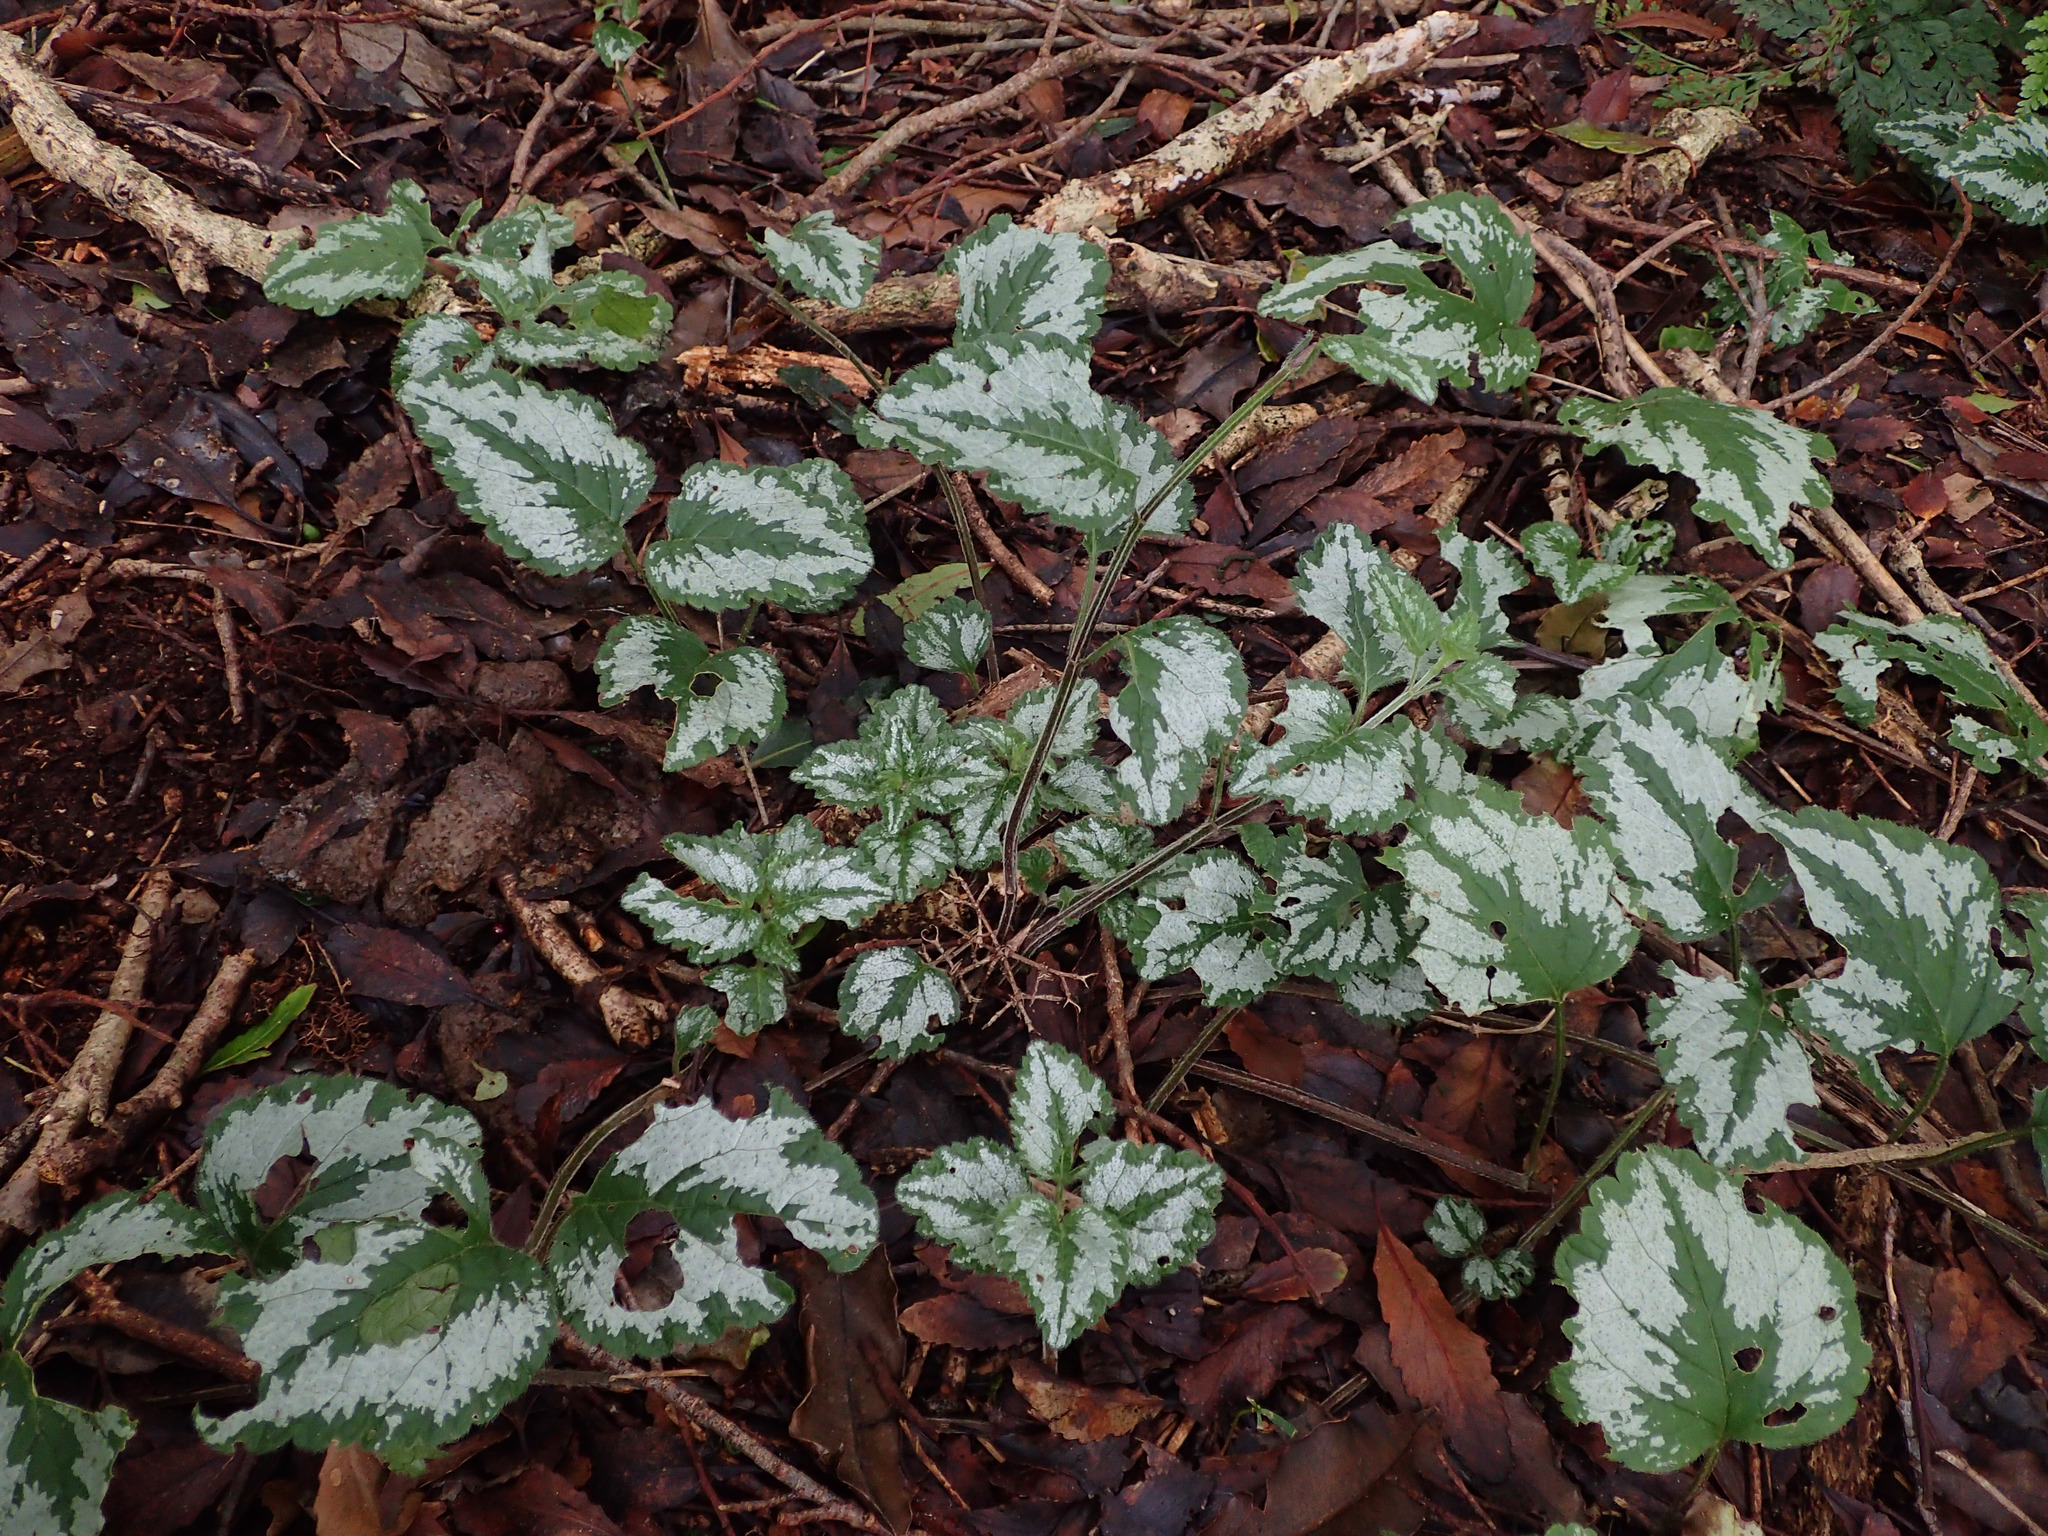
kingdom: Plantae
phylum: Tracheophyta
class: Magnoliopsida
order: Lamiales
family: Lamiaceae
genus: Lamium
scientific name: Lamium galeobdolon
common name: Yellow archangel
